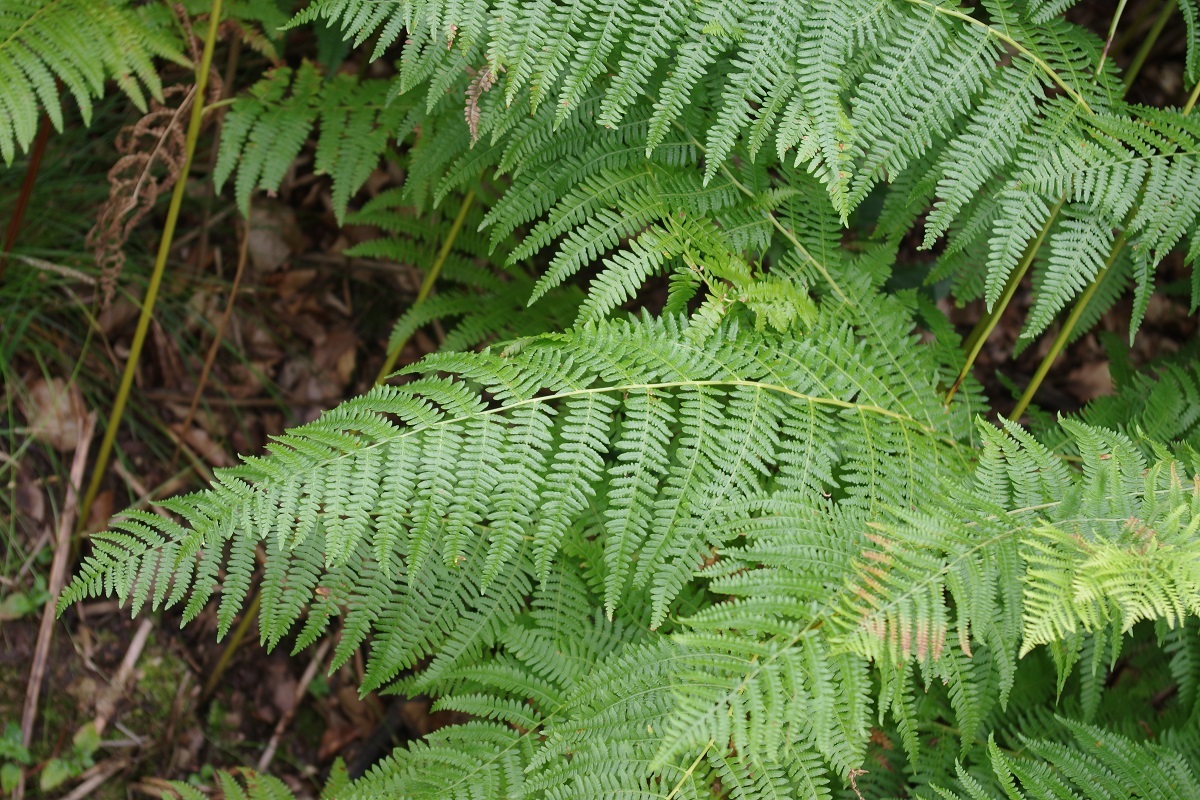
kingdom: Plantae
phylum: Tracheophyta
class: Polypodiopsida
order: Polypodiales
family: Dennstaedtiaceae
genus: Pteridium
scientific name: Pteridium aquilinum
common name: Bracken
